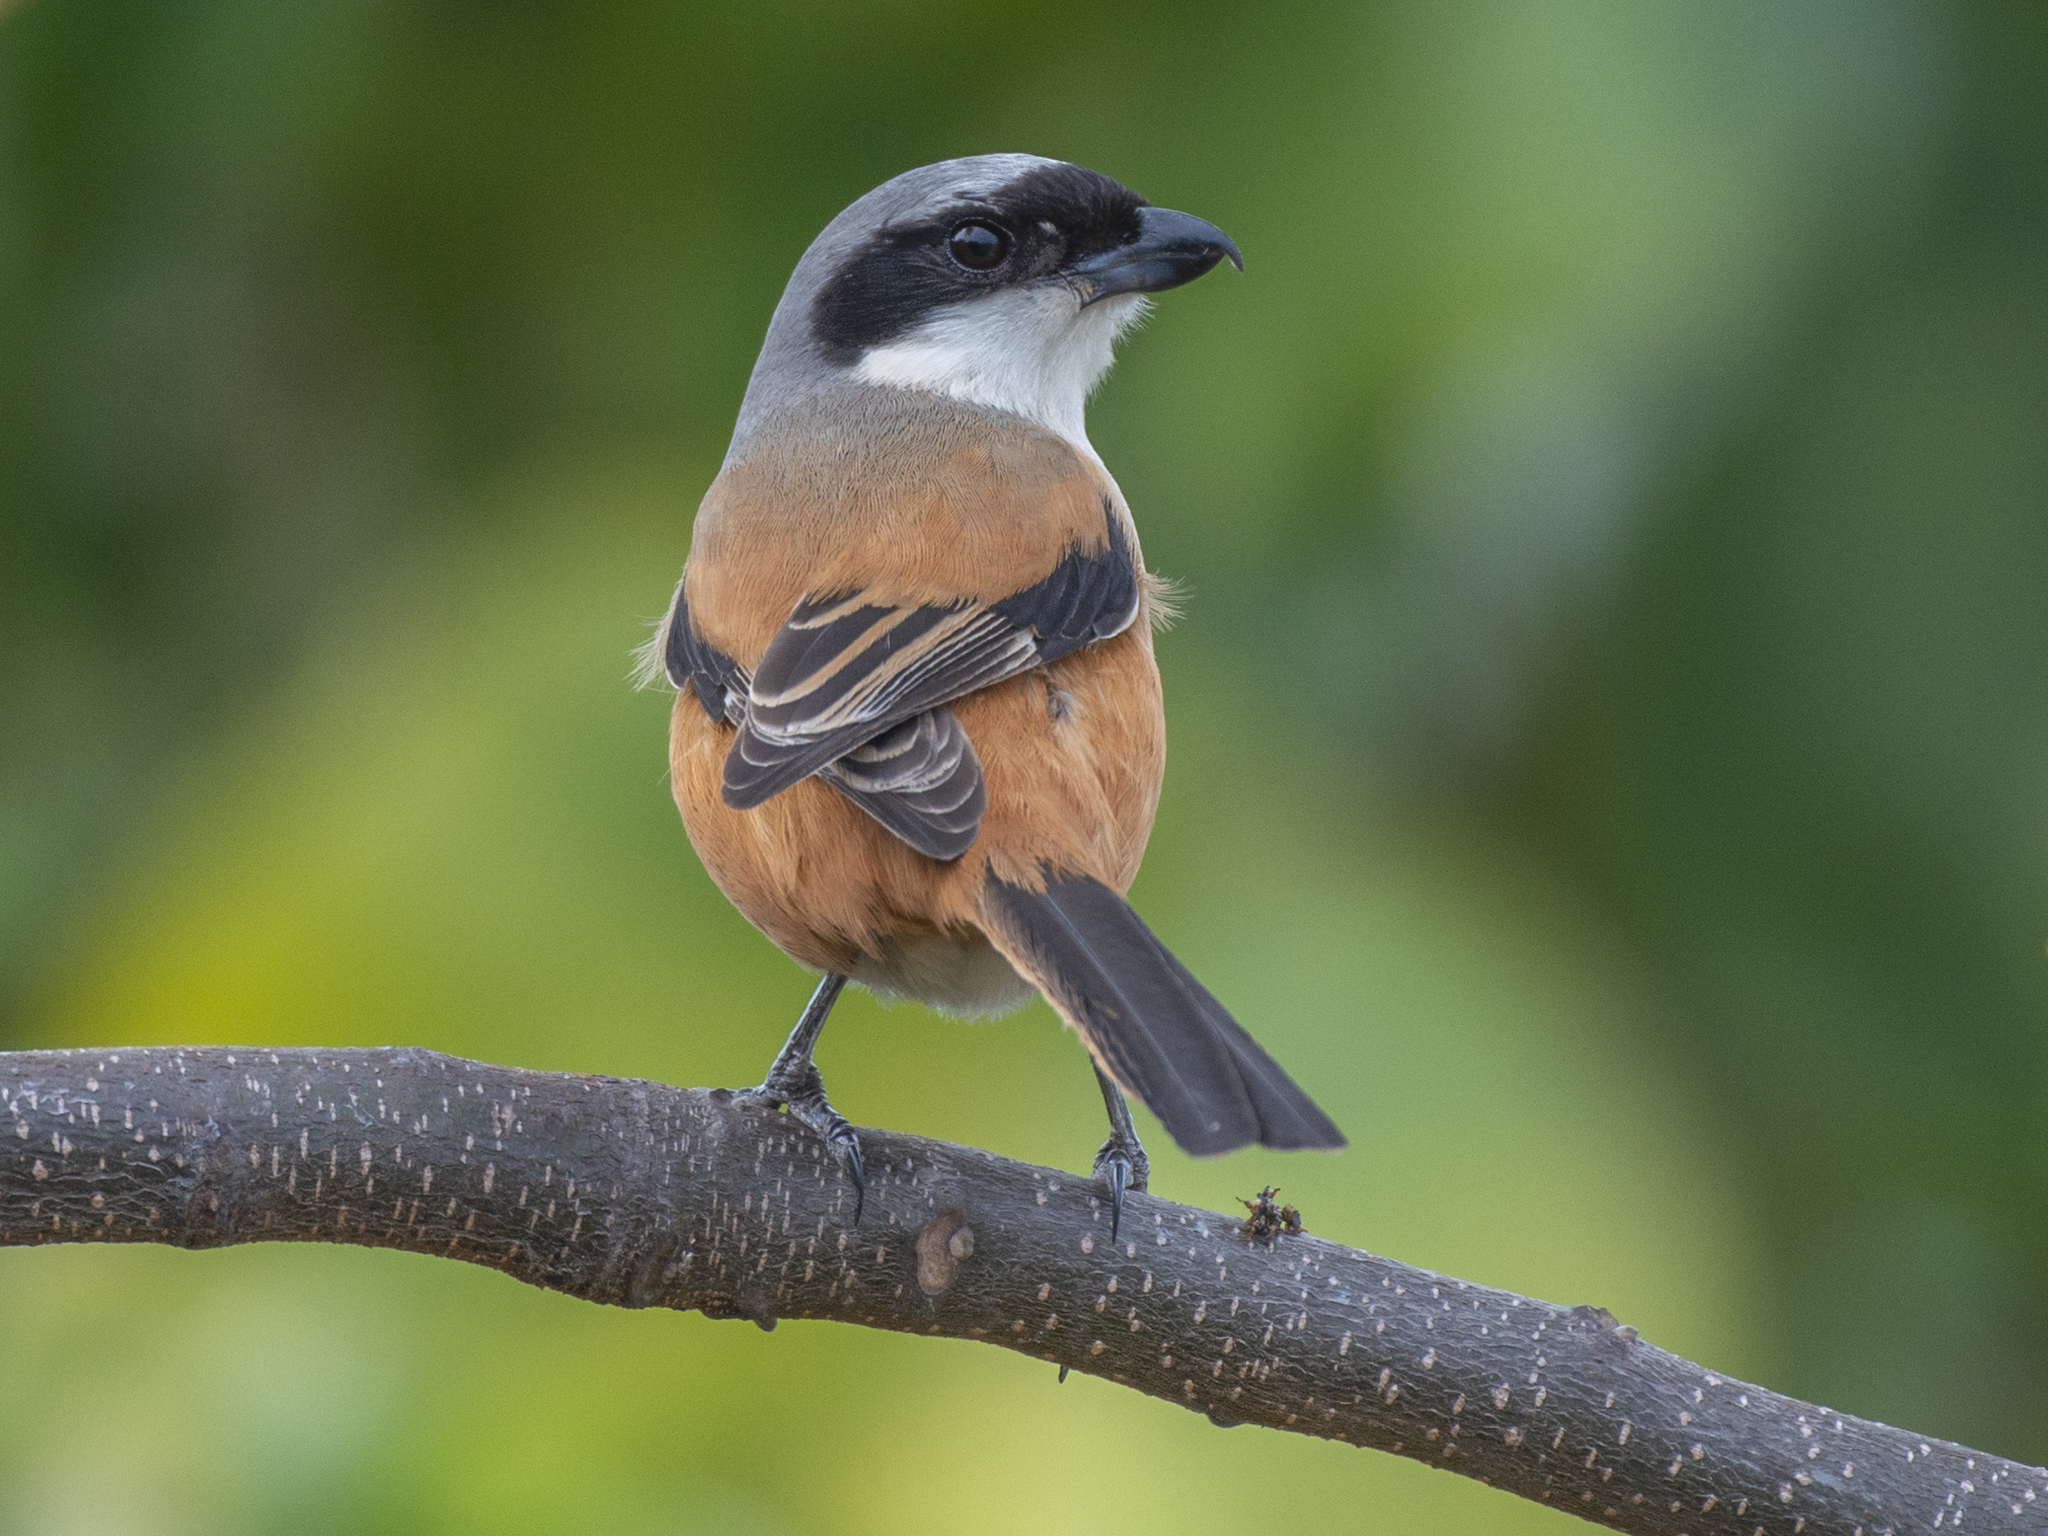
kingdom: Animalia
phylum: Chordata
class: Aves
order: Passeriformes
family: Laniidae
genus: Lanius
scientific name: Lanius schach
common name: Long-tailed shrike
